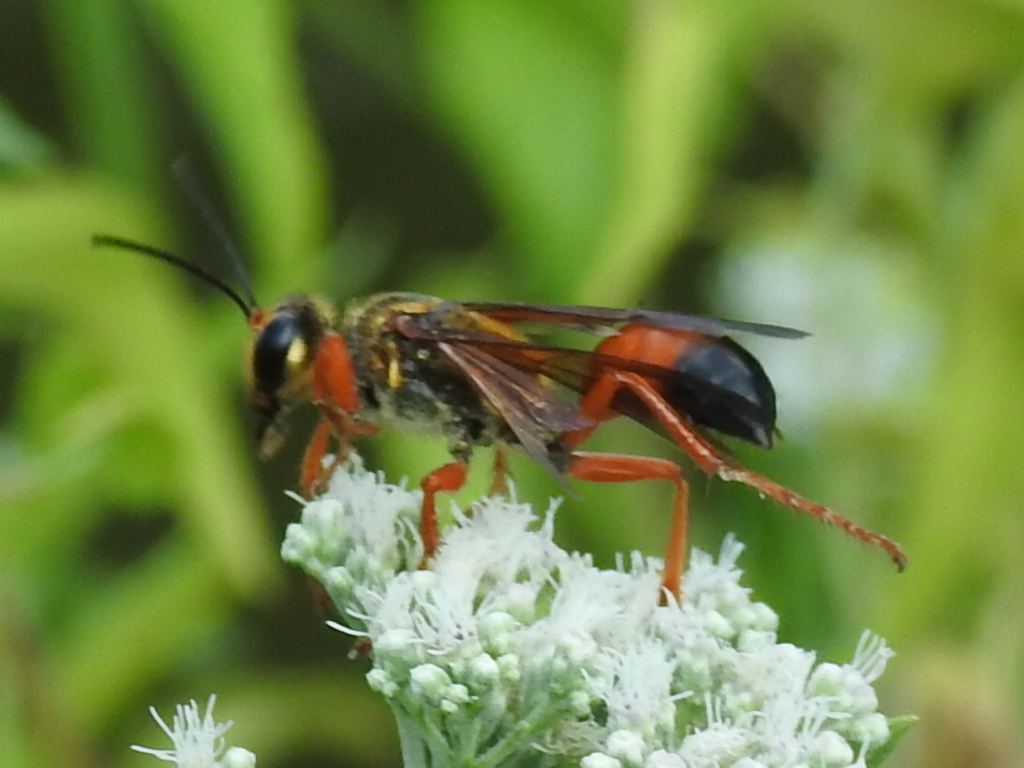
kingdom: Animalia
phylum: Arthropoda
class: Insecta
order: Hymenoptera
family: Sphecidae
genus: Sphex
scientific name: Sphex ichneumoneus
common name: Great golden digger wasp
